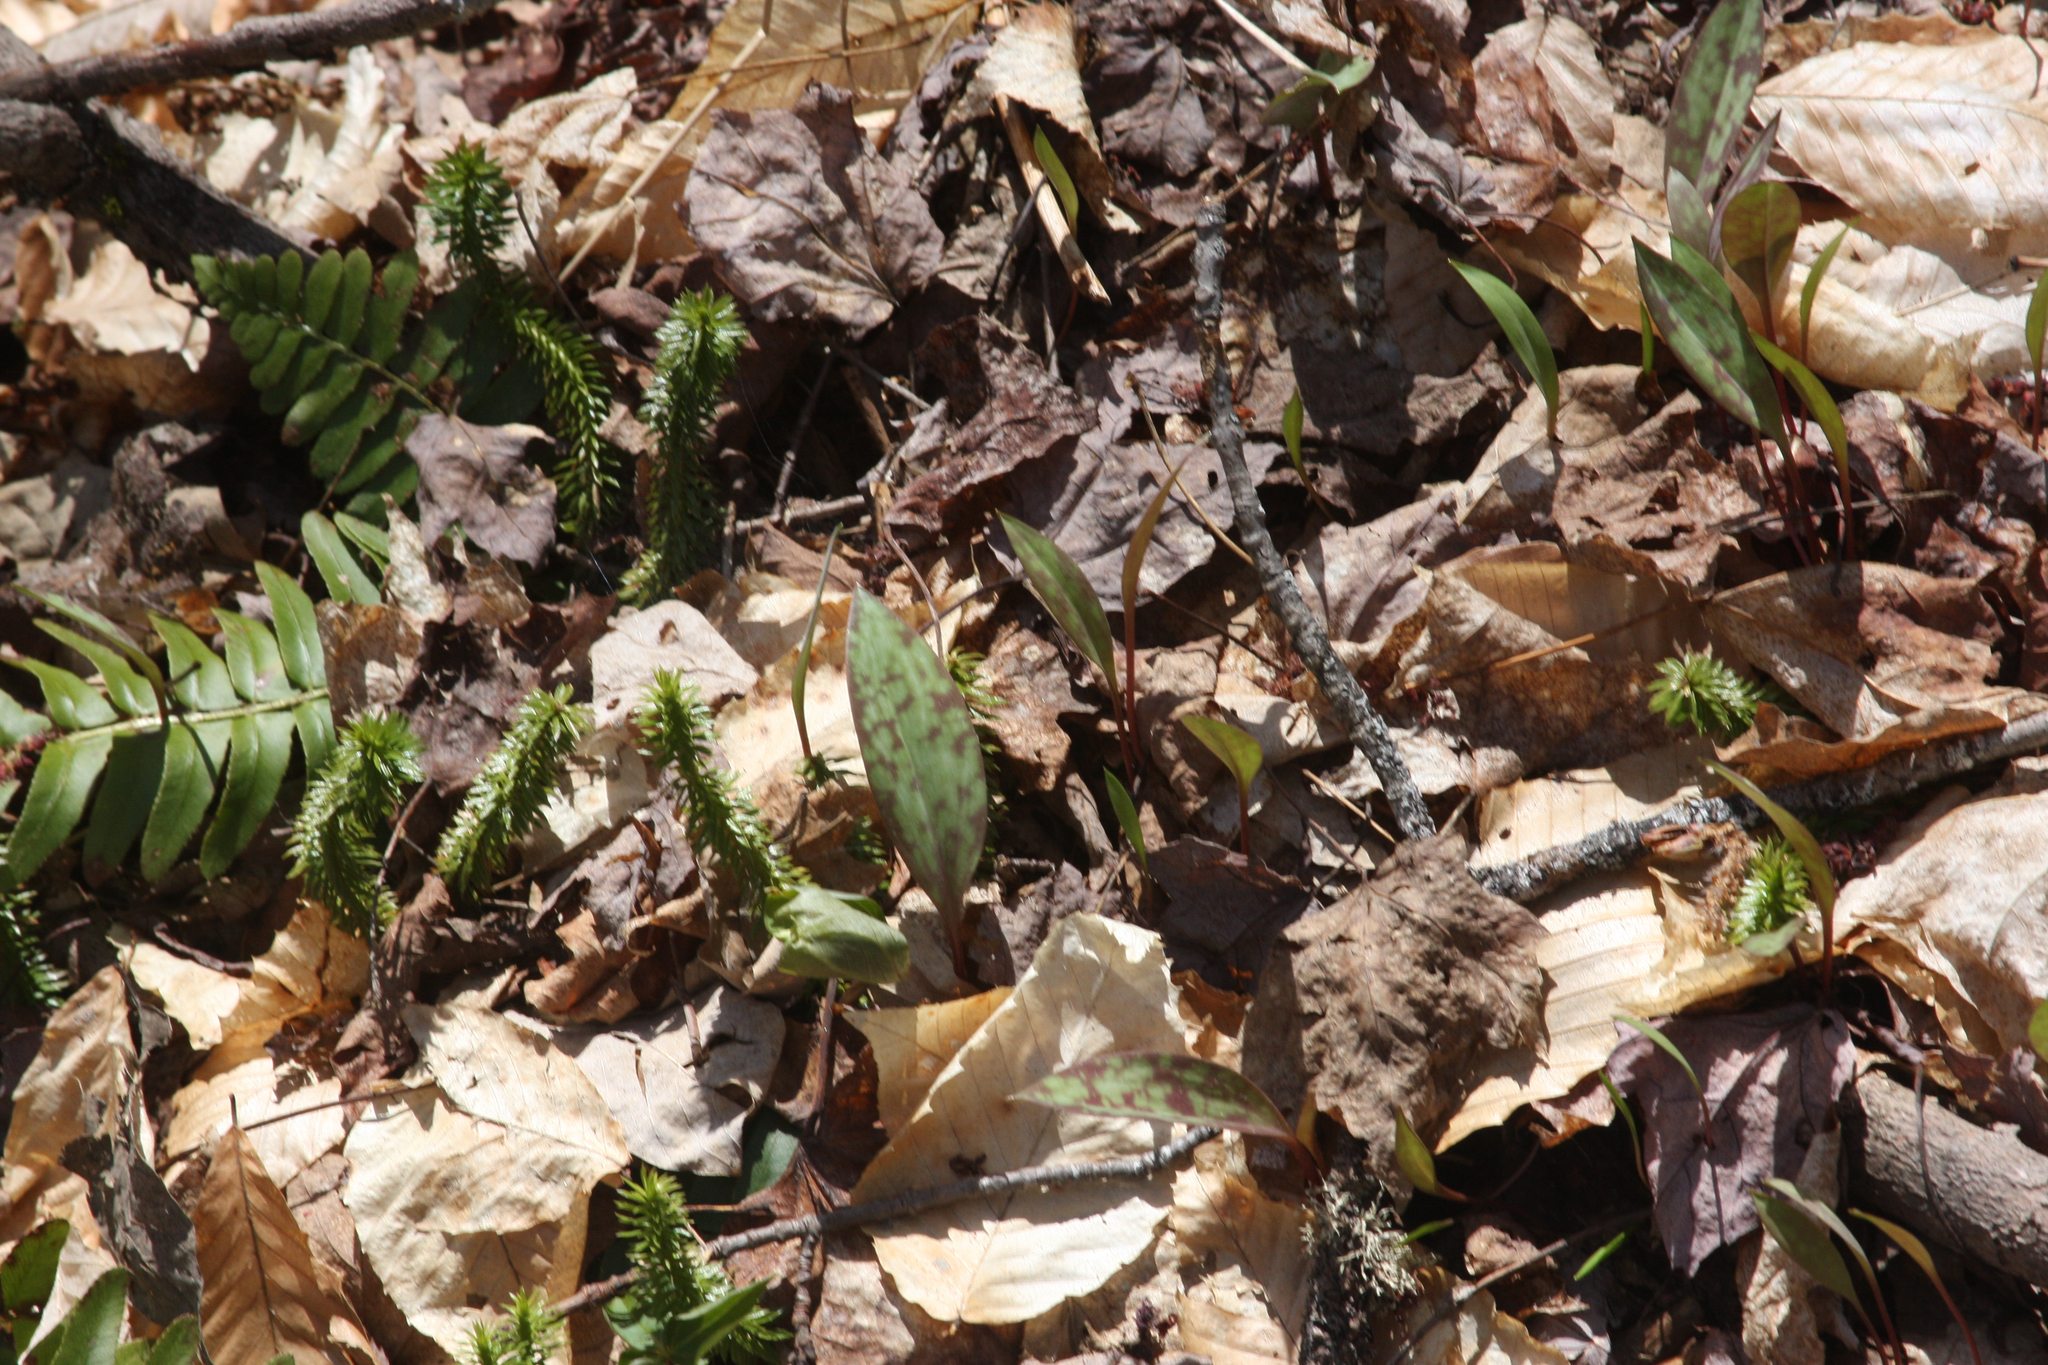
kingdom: Plantae
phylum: Tracheophyta
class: Liliopsida
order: Liliales
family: Liliaceae
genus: Erythronium
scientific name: Erythronium americanum
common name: Yellow adder's-tongue
